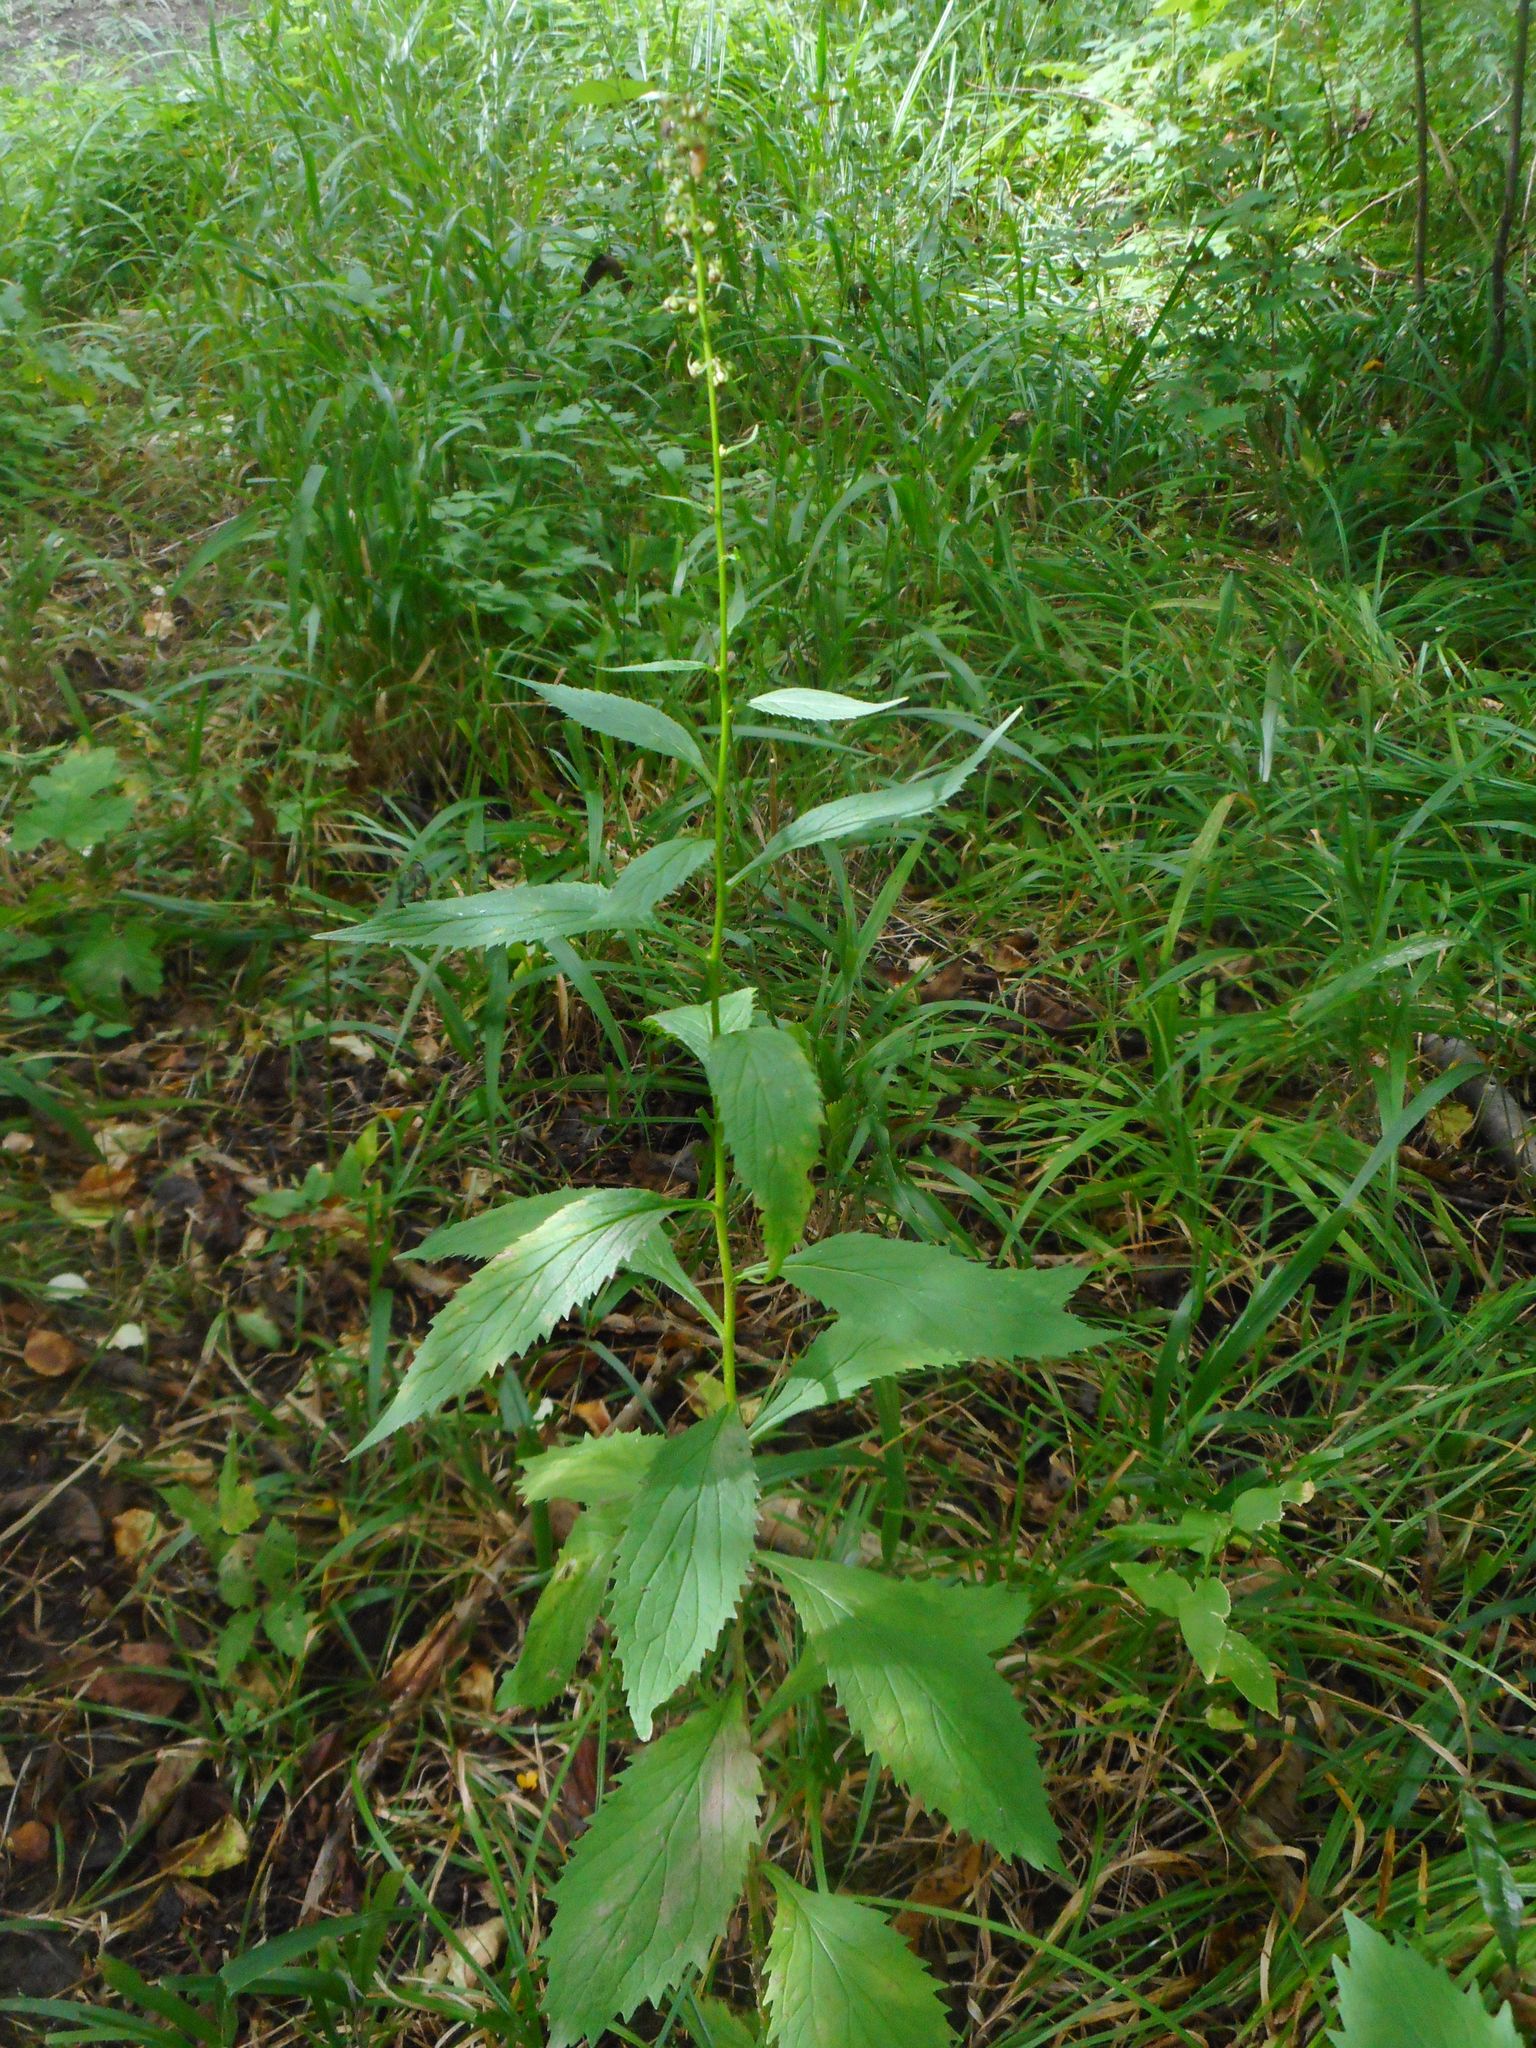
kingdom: Plantae
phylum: Tracheophyta
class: Magnoliopsida
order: Asterales
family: Campanulaceae
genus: Asyneuma
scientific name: Asyneuma japonicum
